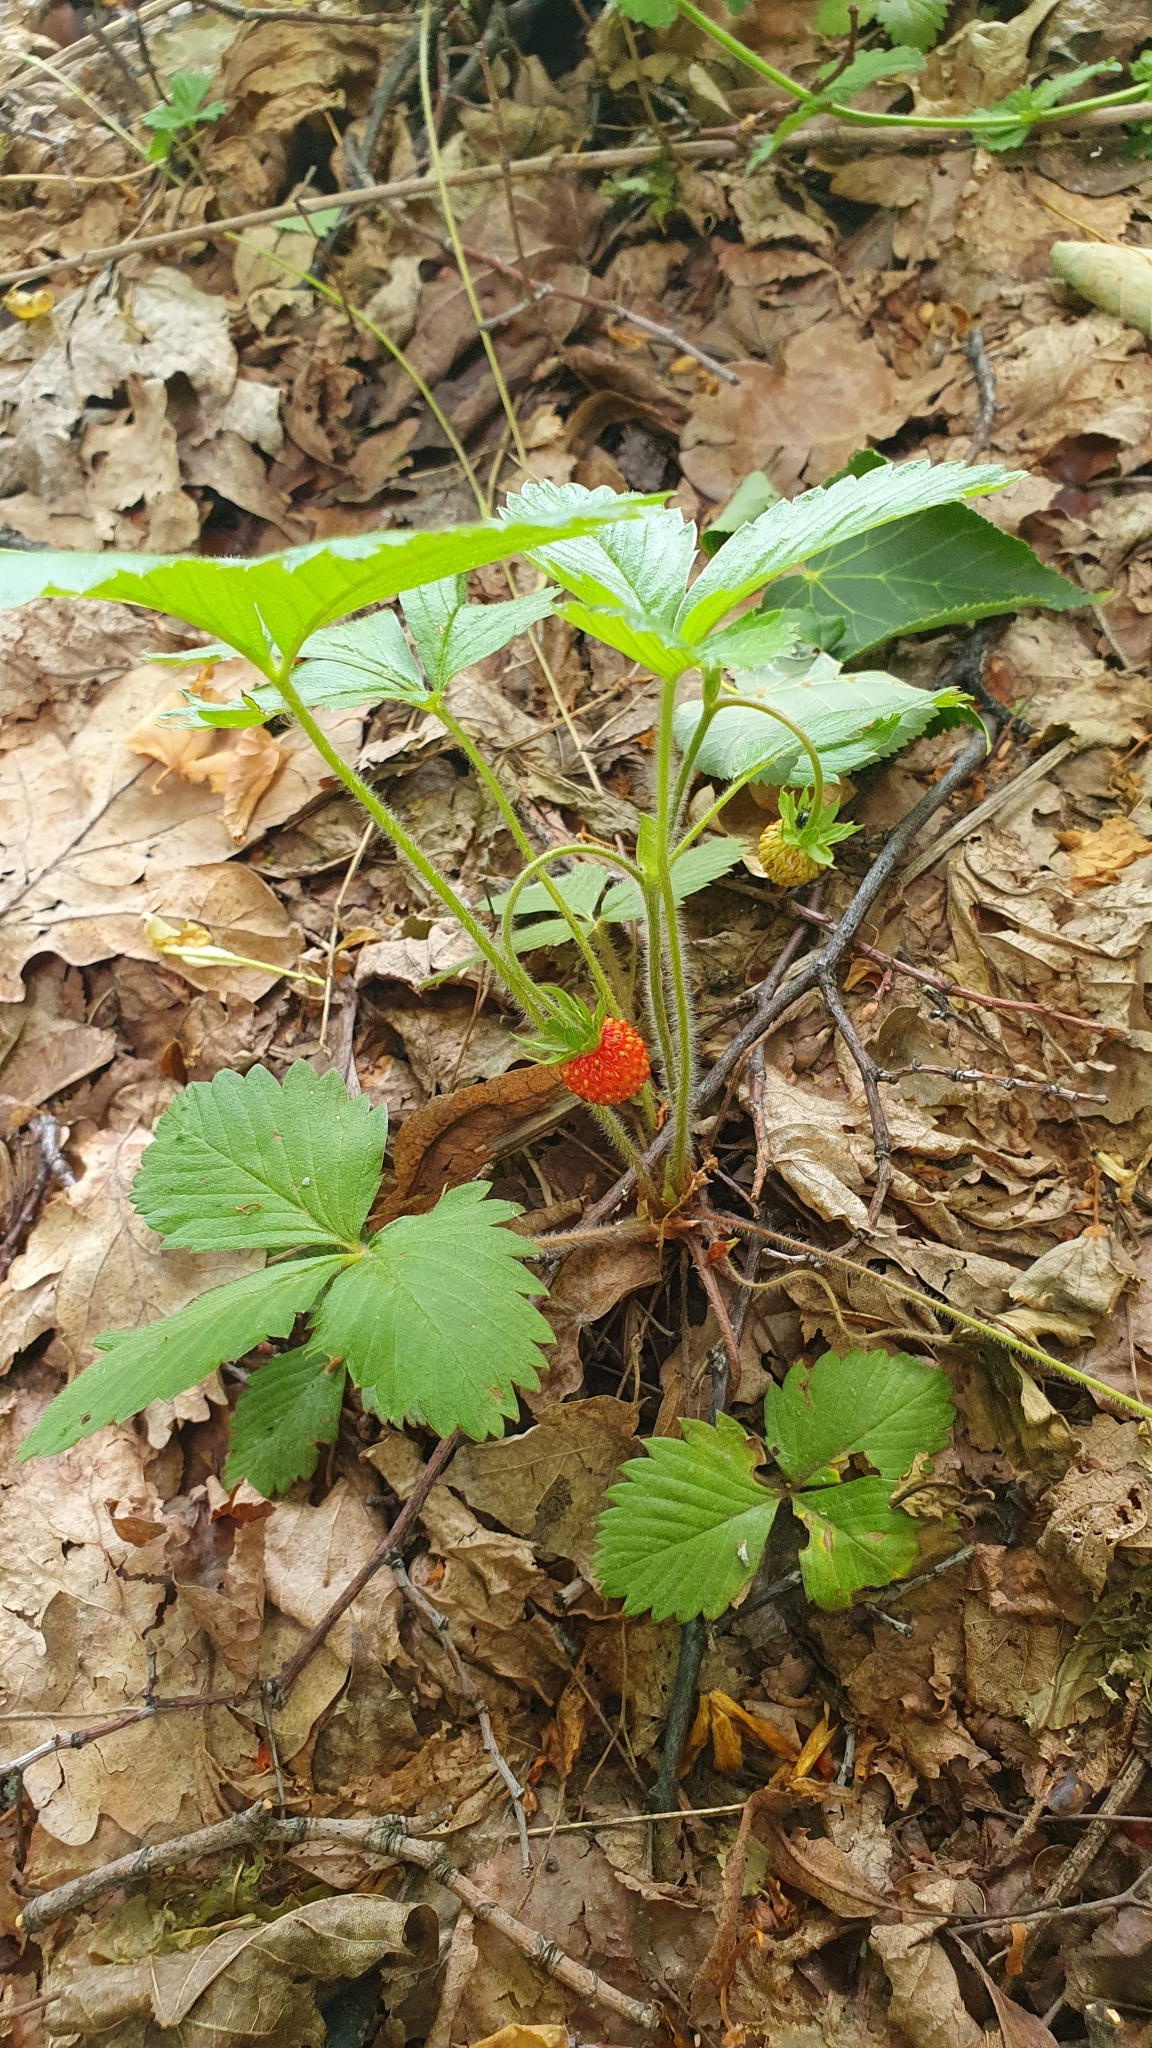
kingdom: Plantae
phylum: Tracheophyta
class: Magnoliopsida
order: Rosales
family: Rosaceae
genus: Fragaria
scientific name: Fragaria vesca
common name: Wild strawberry
